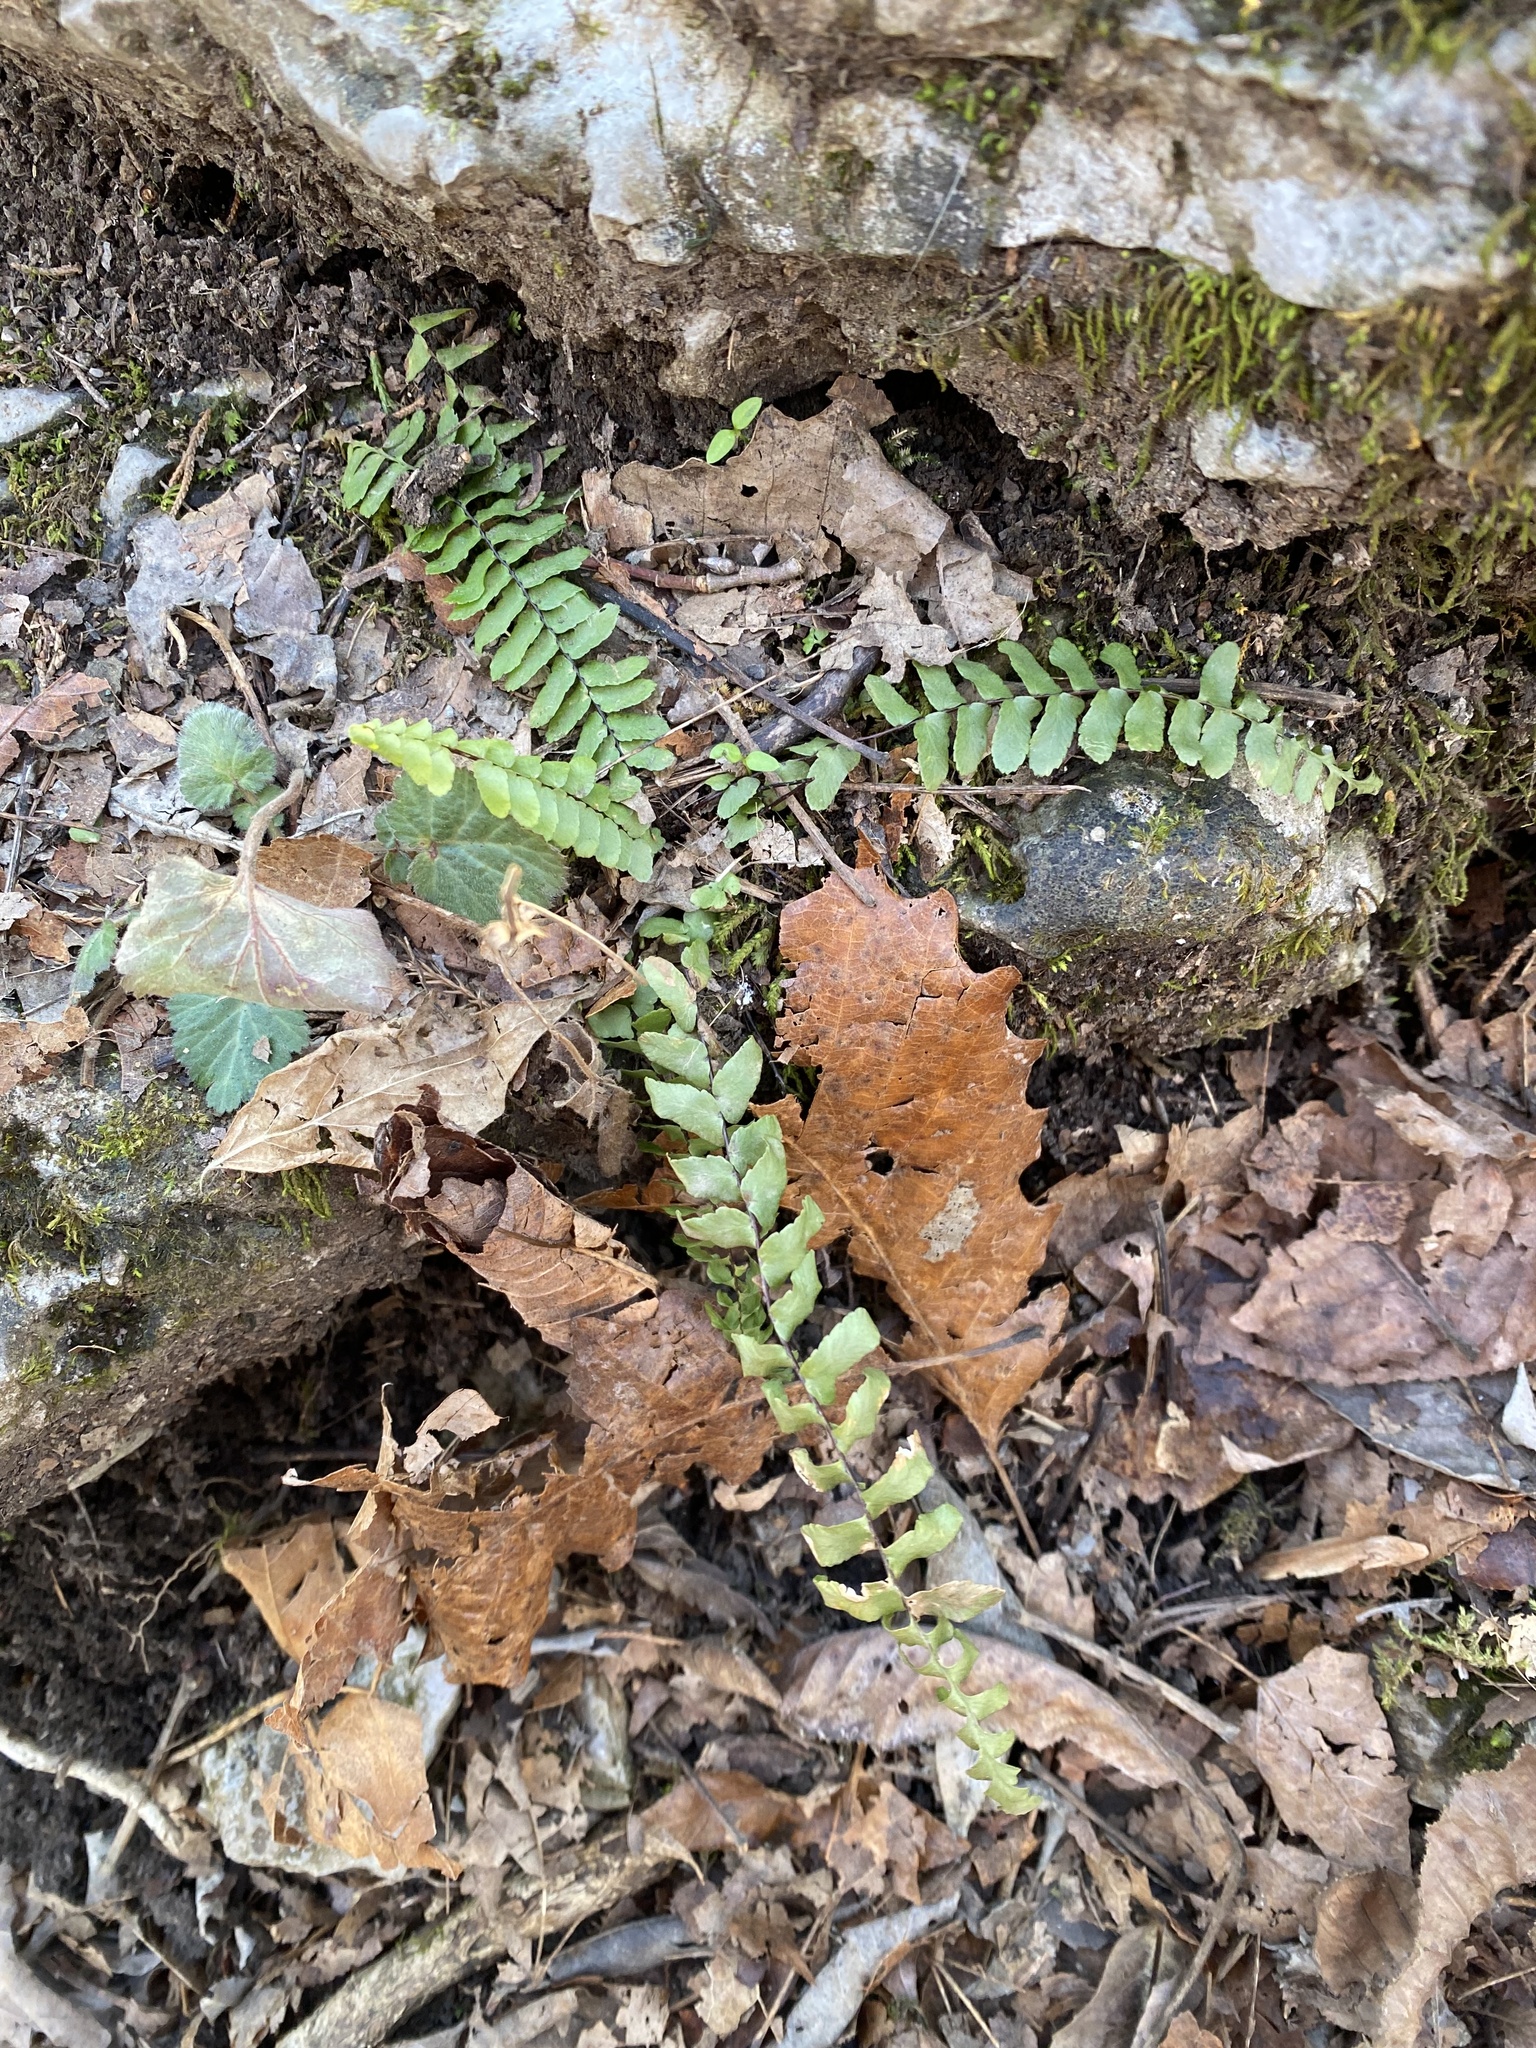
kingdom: Plantae
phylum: Tracheophyta
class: Polypodiopsida
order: Polypodiales
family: Aspleniaceae
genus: Asplenium
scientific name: Asplenium platyneuron
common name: Ebony spleenwort
